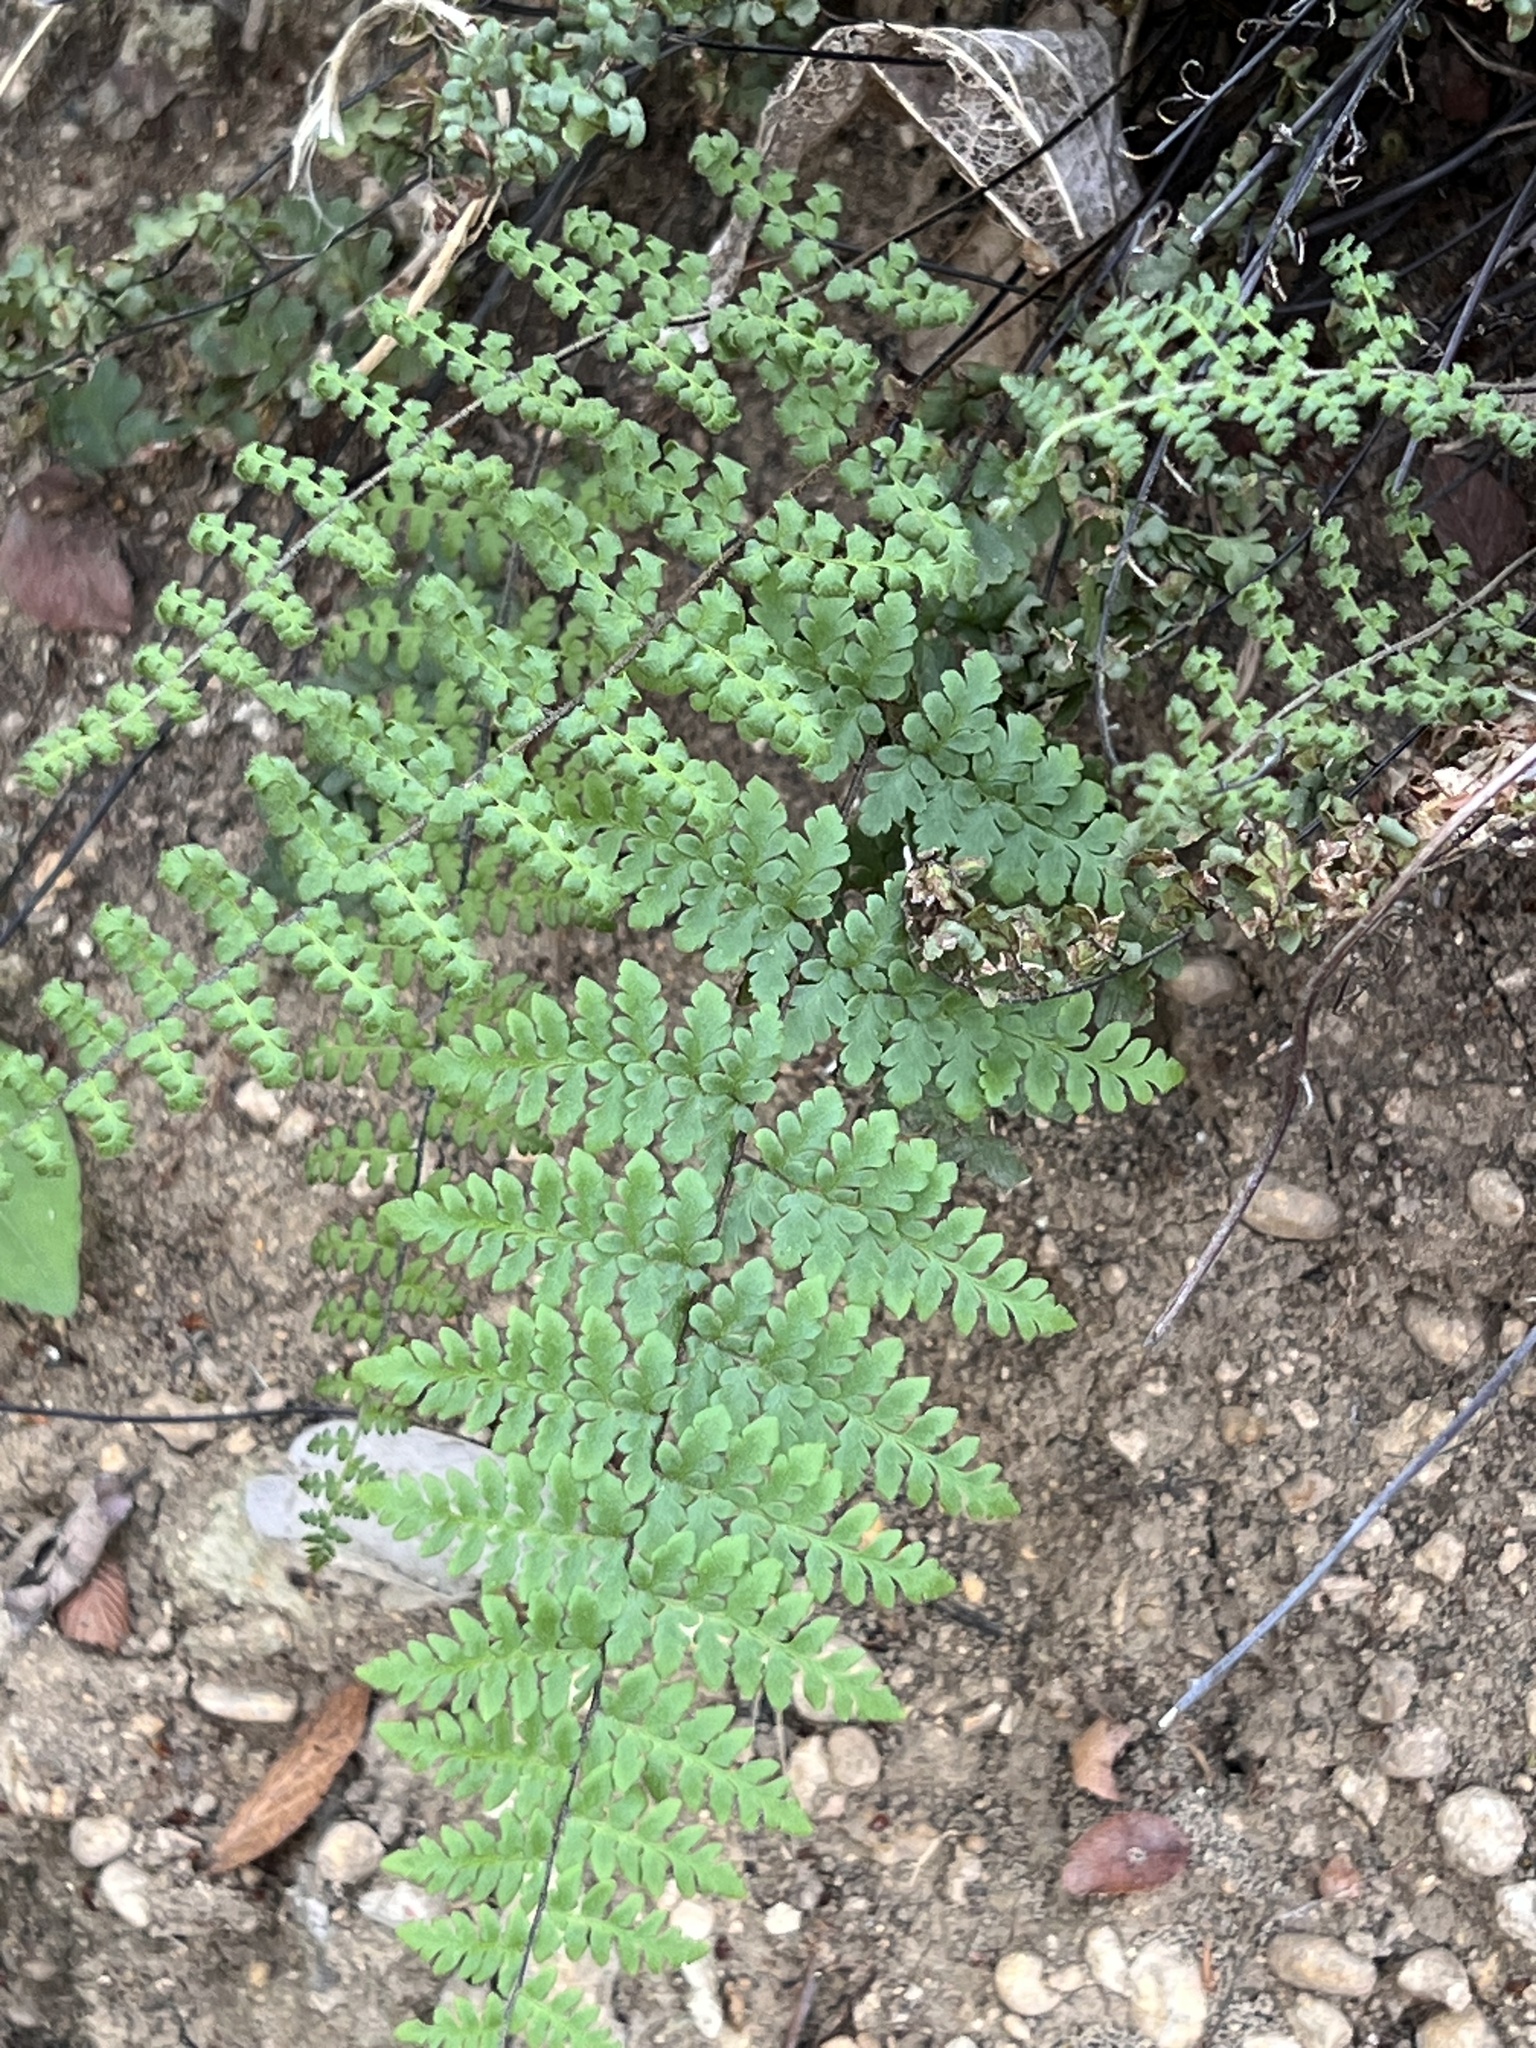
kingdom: Plantae
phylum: Tracheophyta
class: Polypodiopsida
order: Polypodiales
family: Pteridaceae
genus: Myriopteris
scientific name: Myriopteris alabamensis
